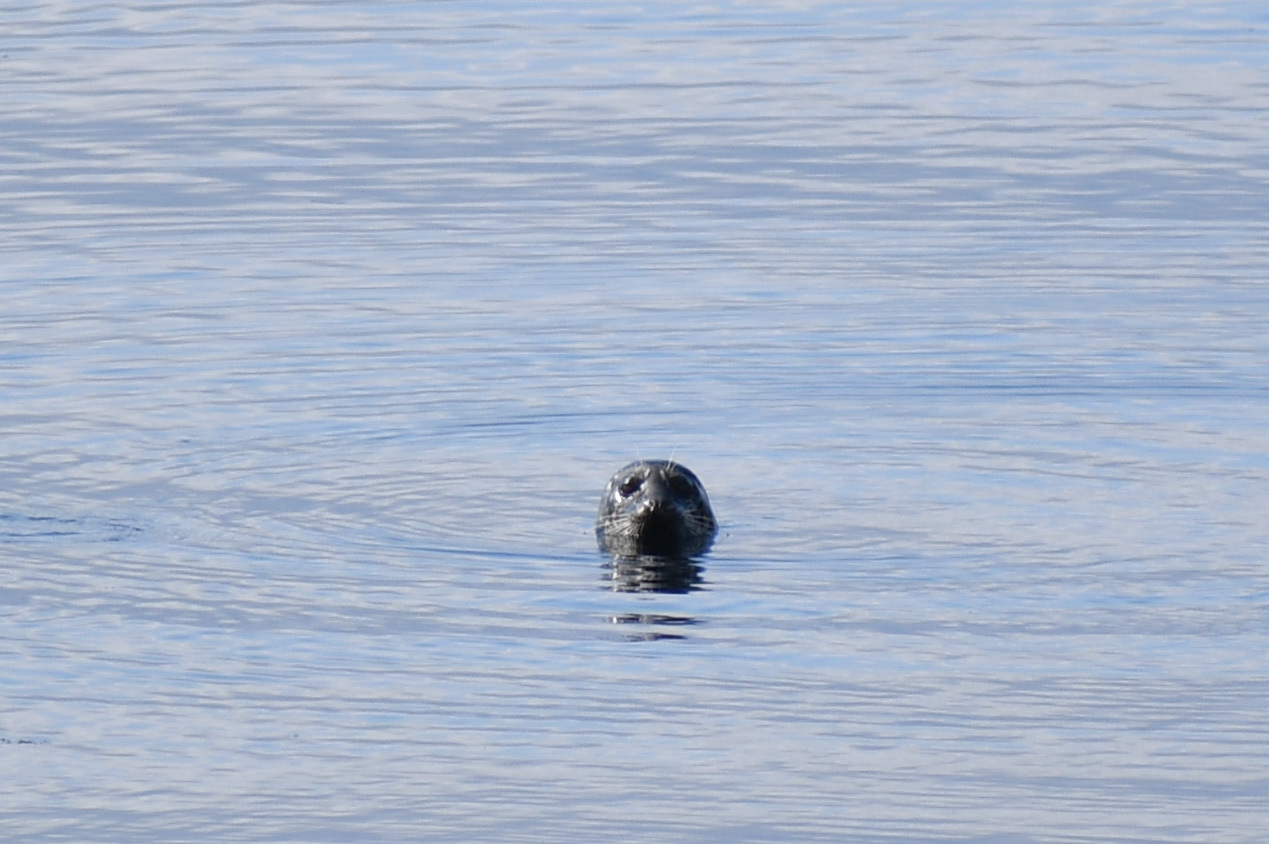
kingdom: Animalia
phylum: Chordata
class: Mammalia
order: Carnivora
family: Phocidae
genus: Phoca
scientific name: Phoca vitulina
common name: Harbor seal
